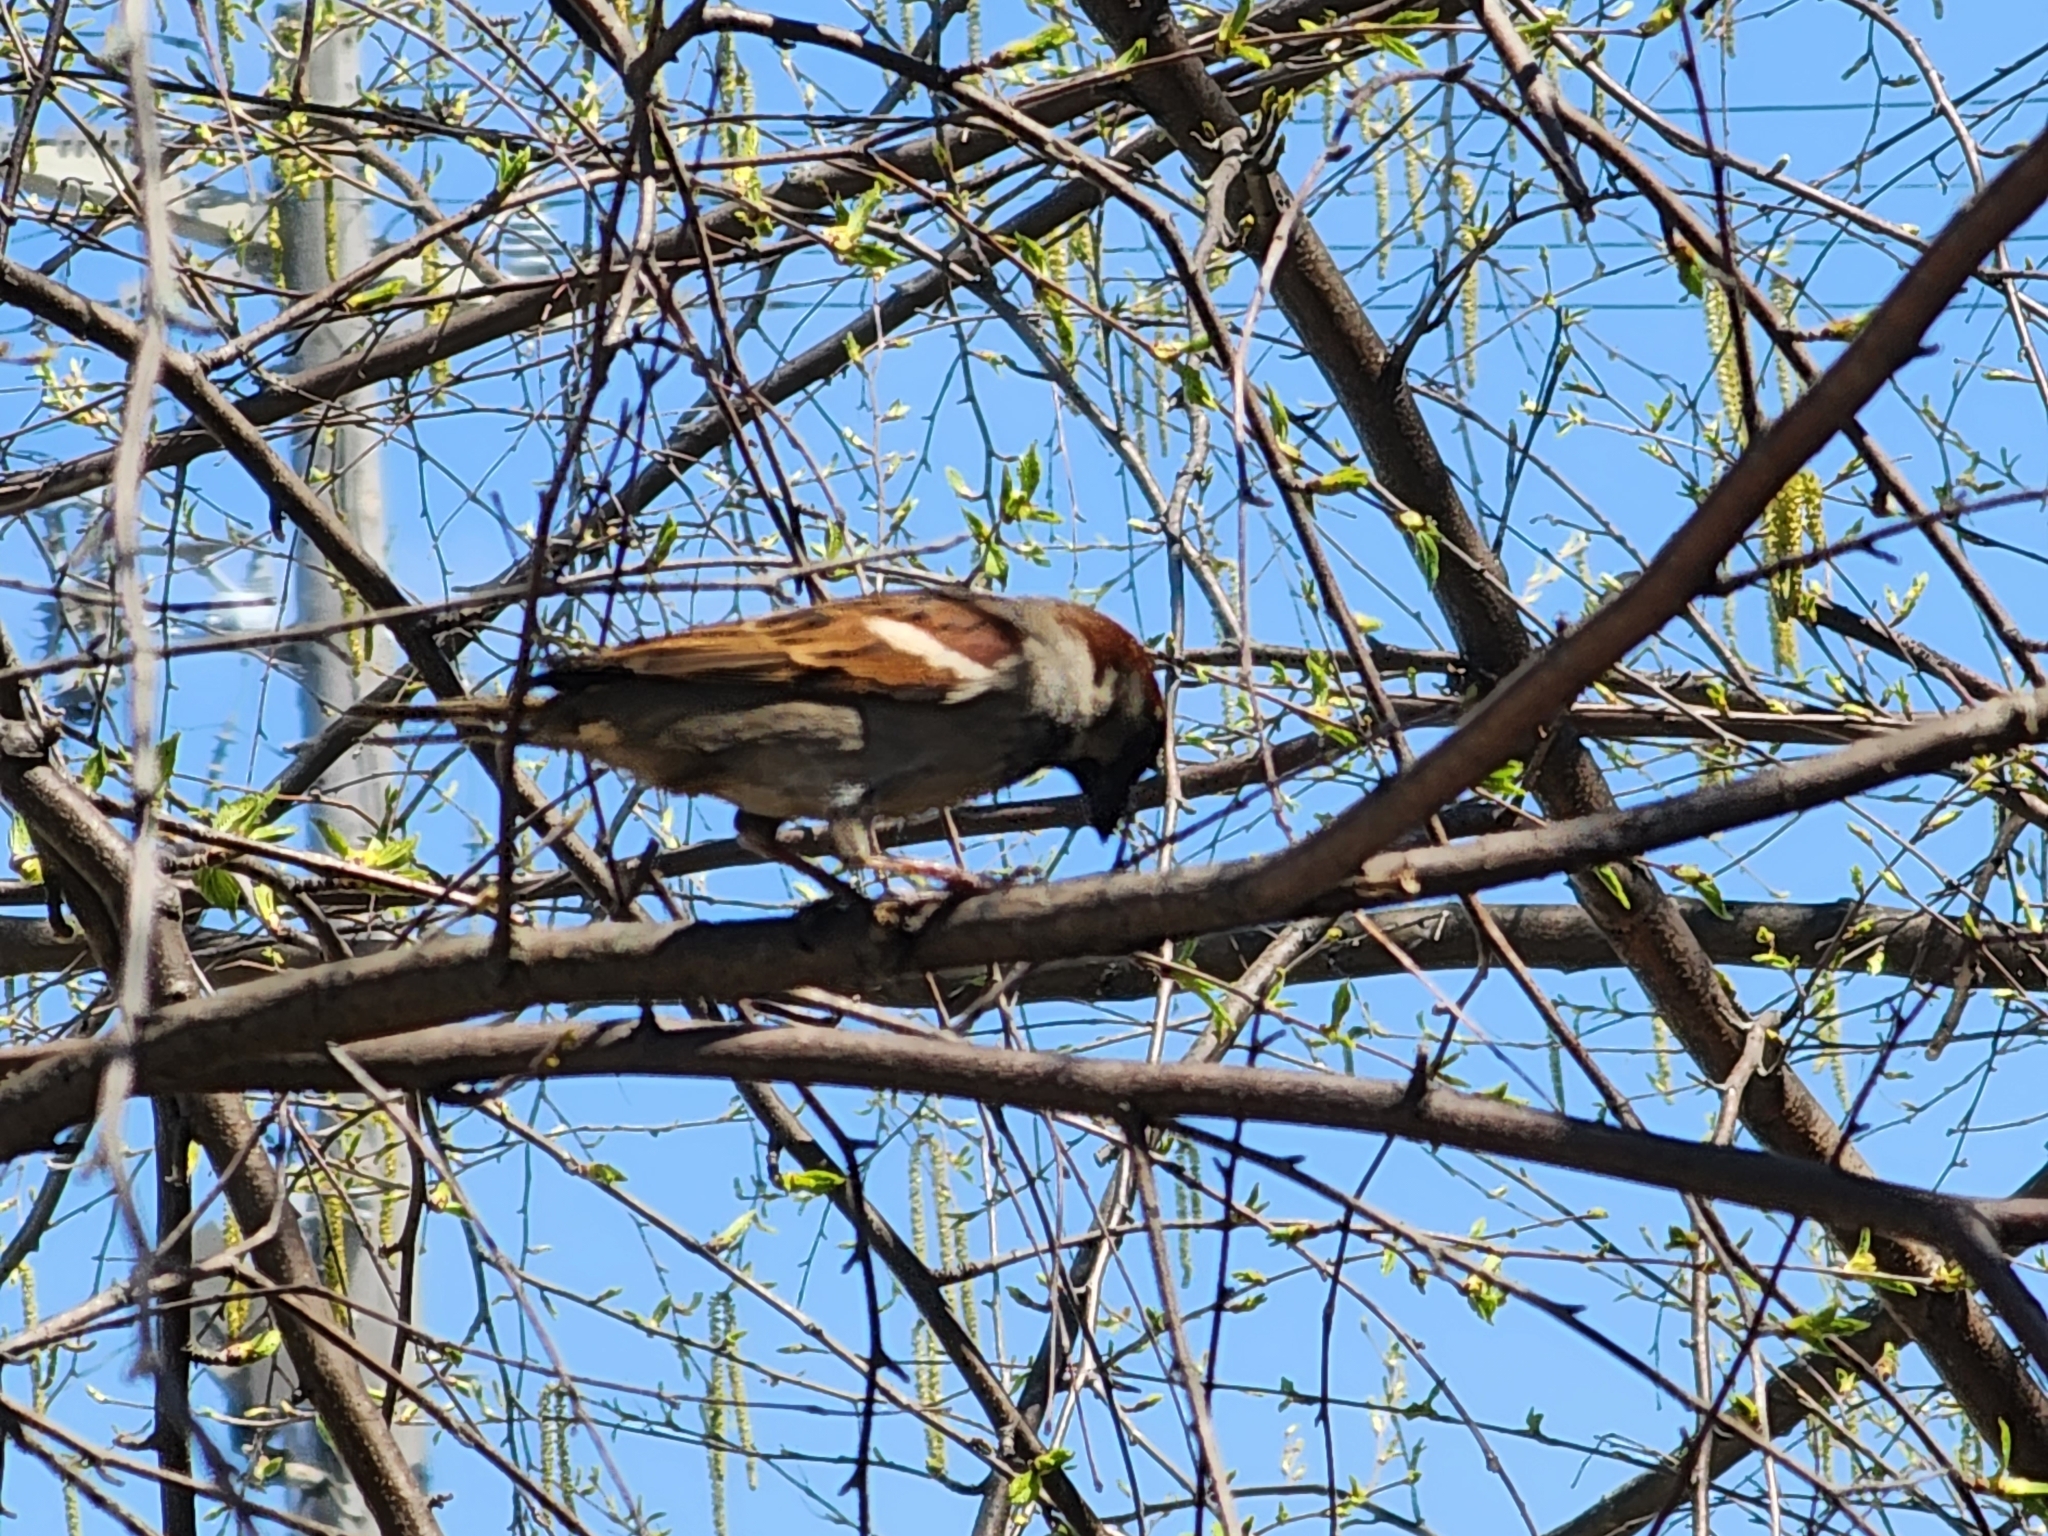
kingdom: Animalia
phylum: Chordata
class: Aves
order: Passeriformes
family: Passeridae
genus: Passer
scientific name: Passer domesticus
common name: House sparrow
